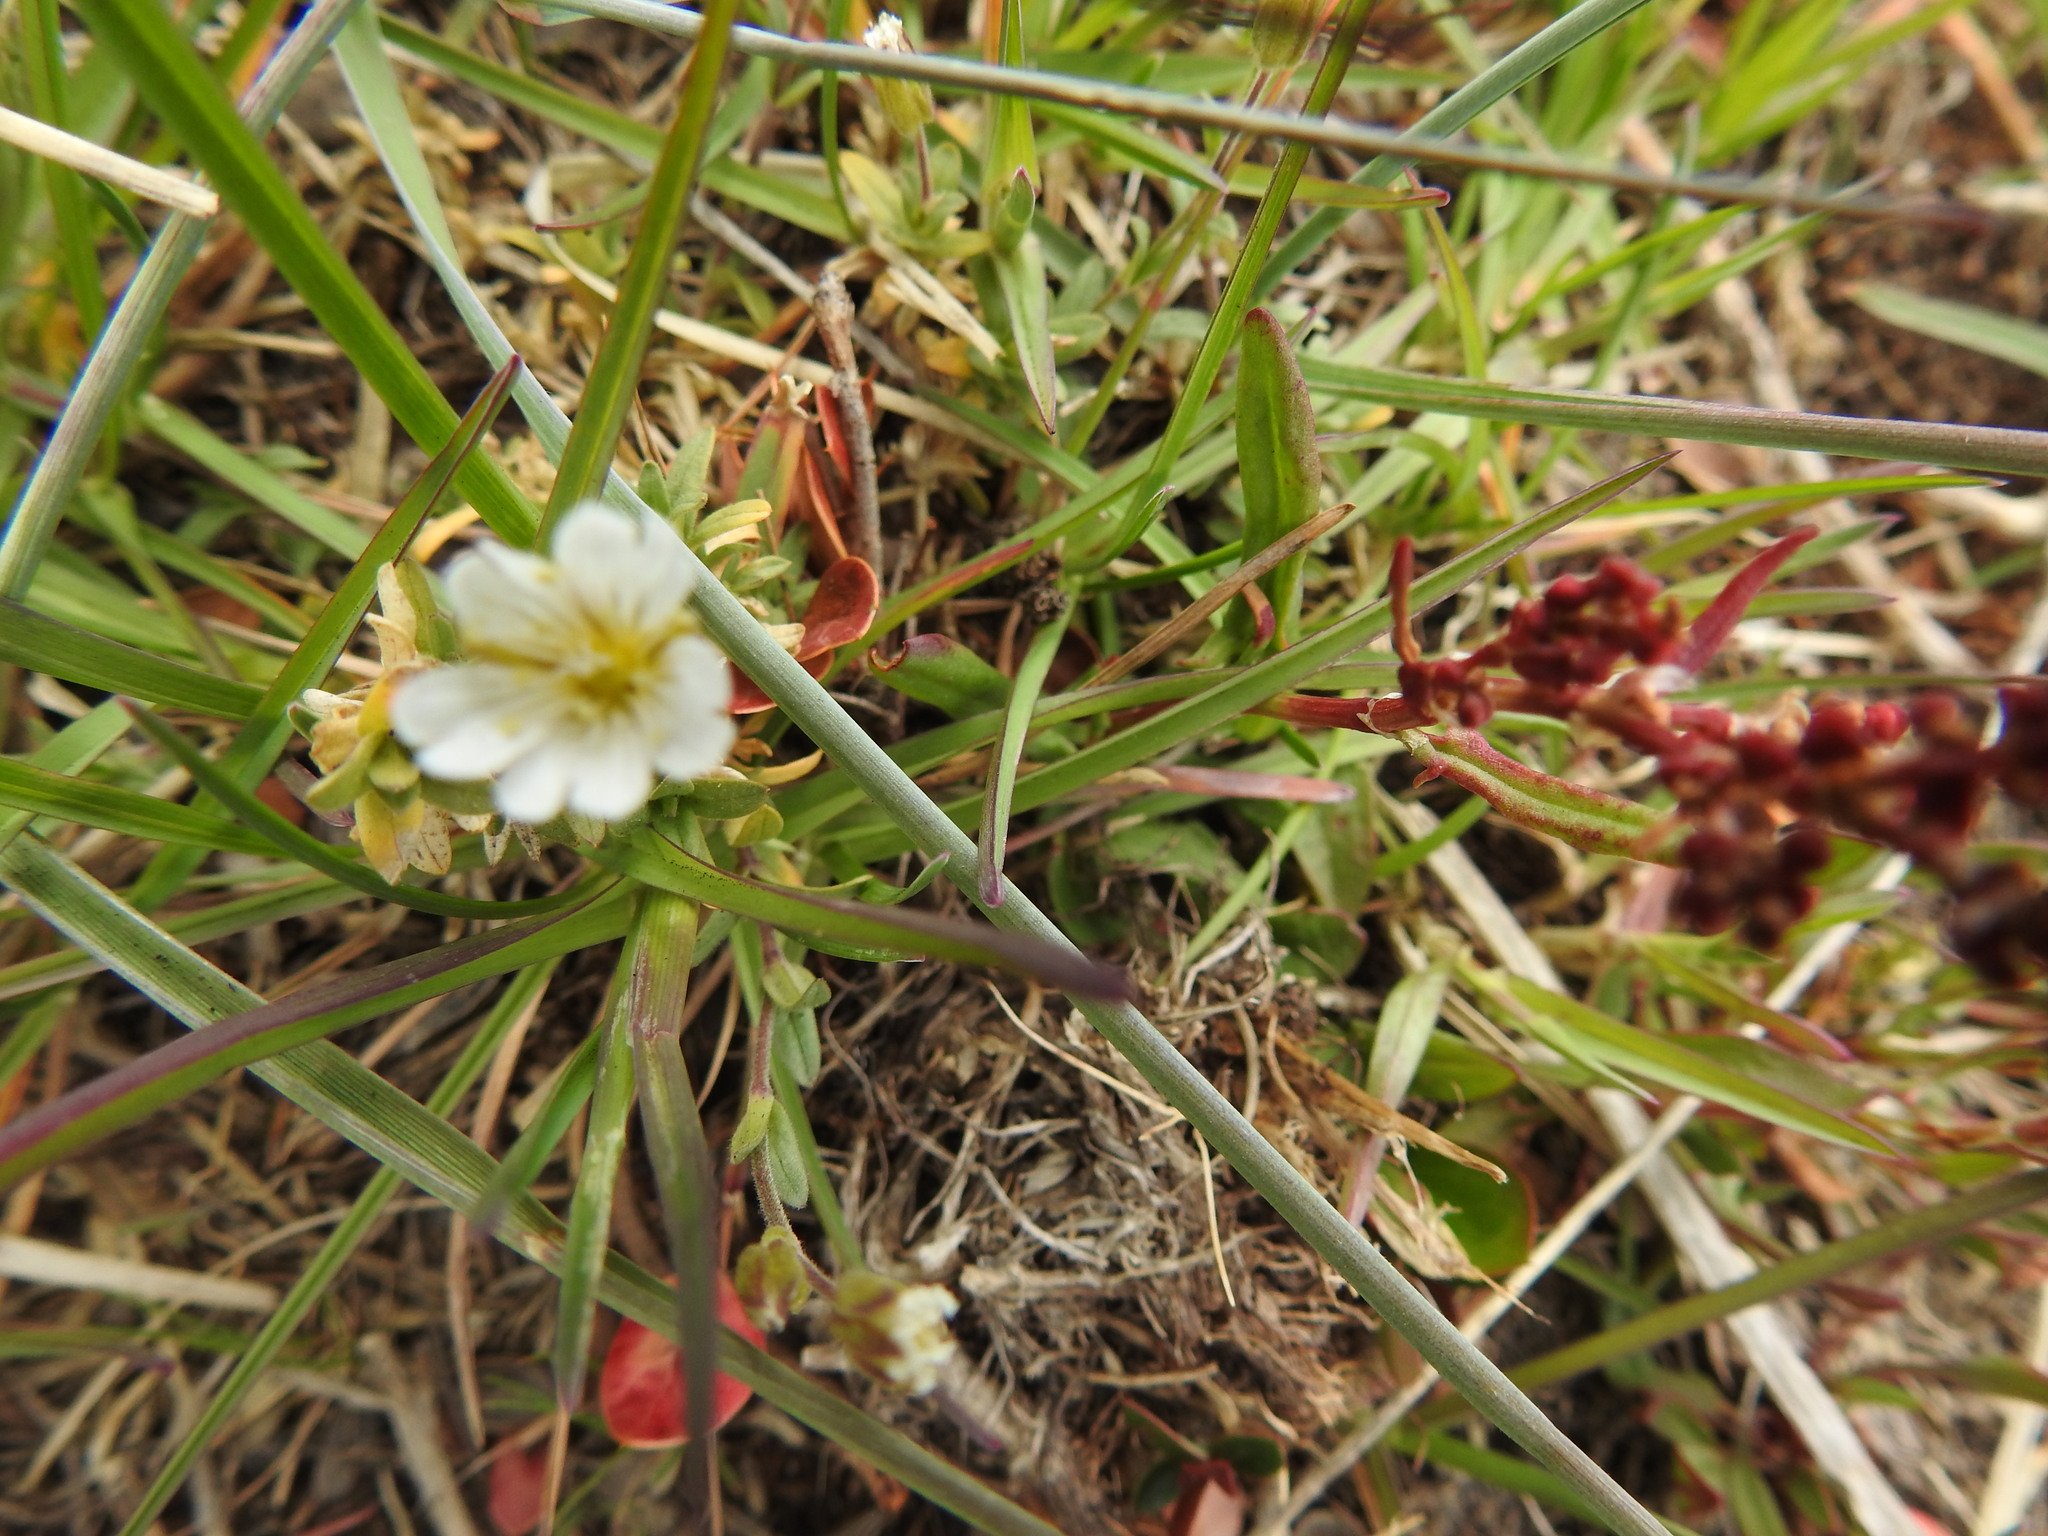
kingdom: Plantae
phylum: Tracheophyta
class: Magnoliopsida
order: Caryophyllales
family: Caryophyllaceae
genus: Cerastium
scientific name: Cerastium arvense
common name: Field mouse-ear
